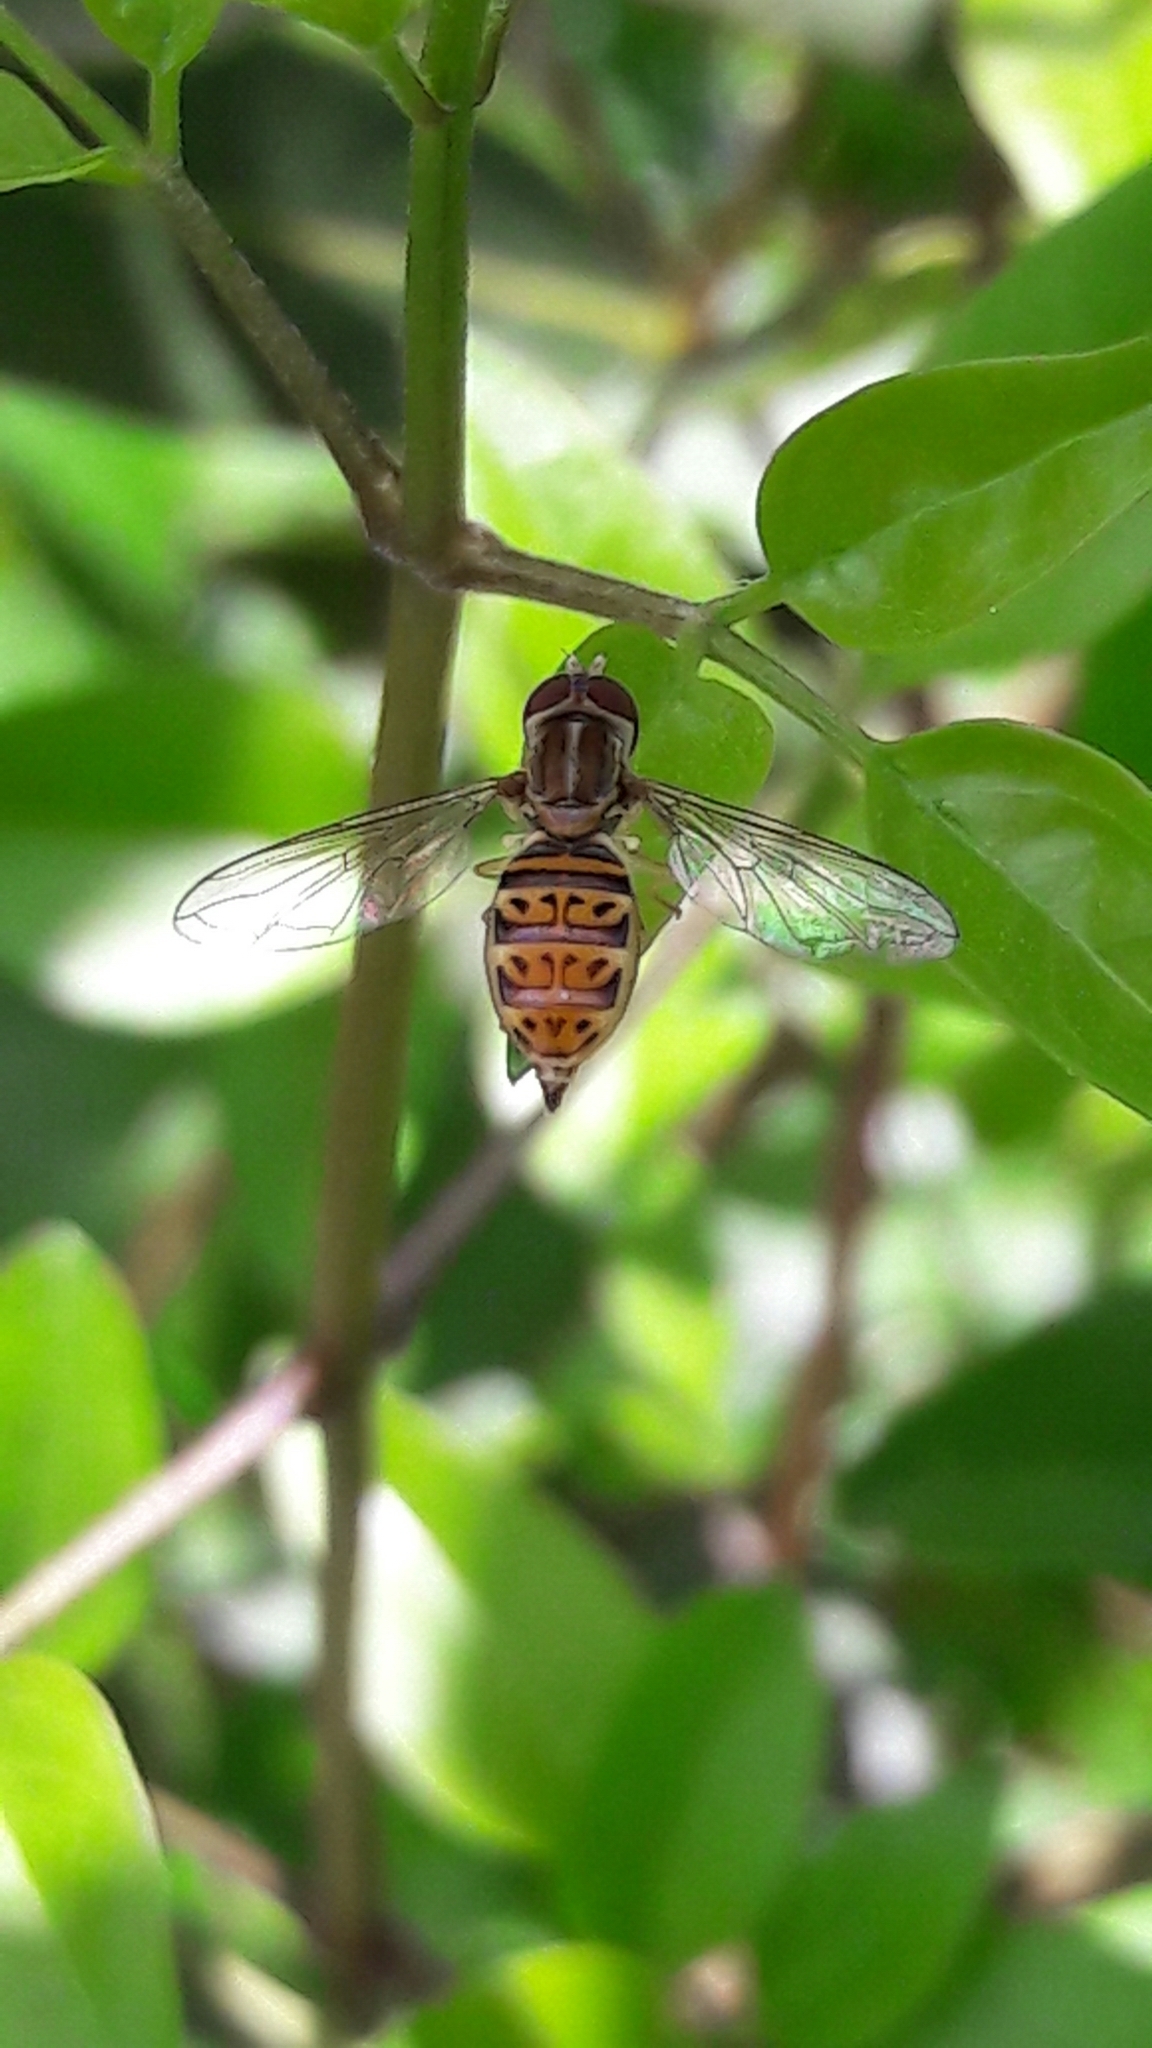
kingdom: Animalia
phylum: Arthropoda
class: Insecta
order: Diptera
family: Syrphidae
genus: Toxomerus
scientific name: Toxomerus pulchellus
